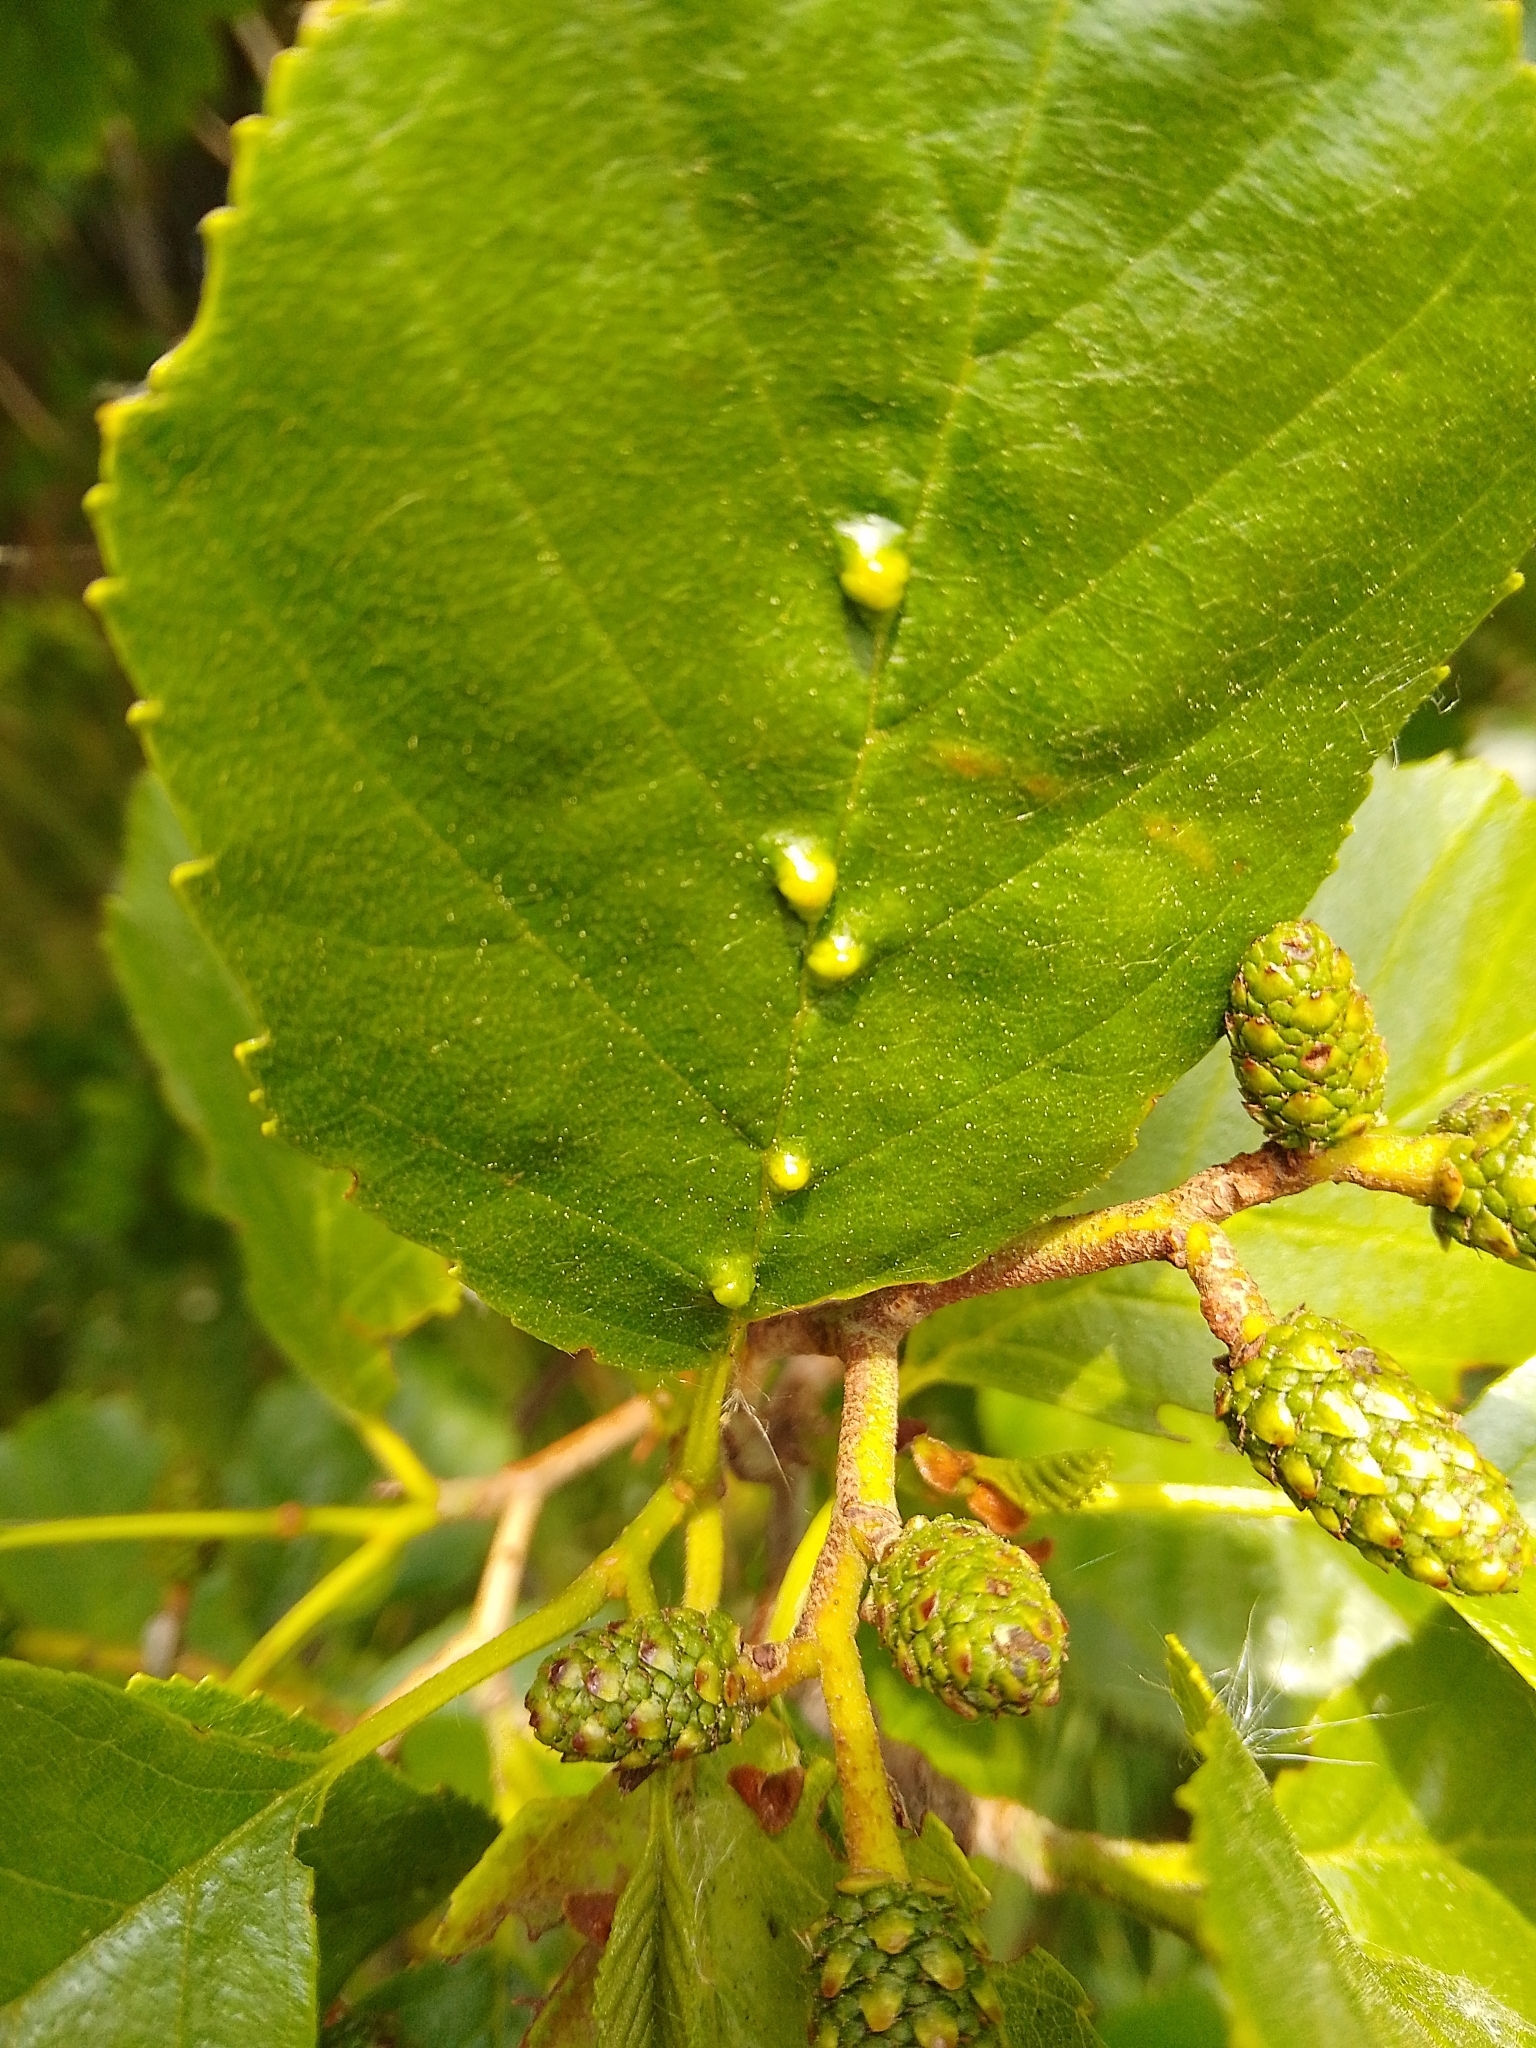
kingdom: Animalia
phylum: Arthropoda
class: Arachnida
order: Trombidiformes
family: Eriophyidae
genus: Eriophyes
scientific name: Eriophyes inangulis
